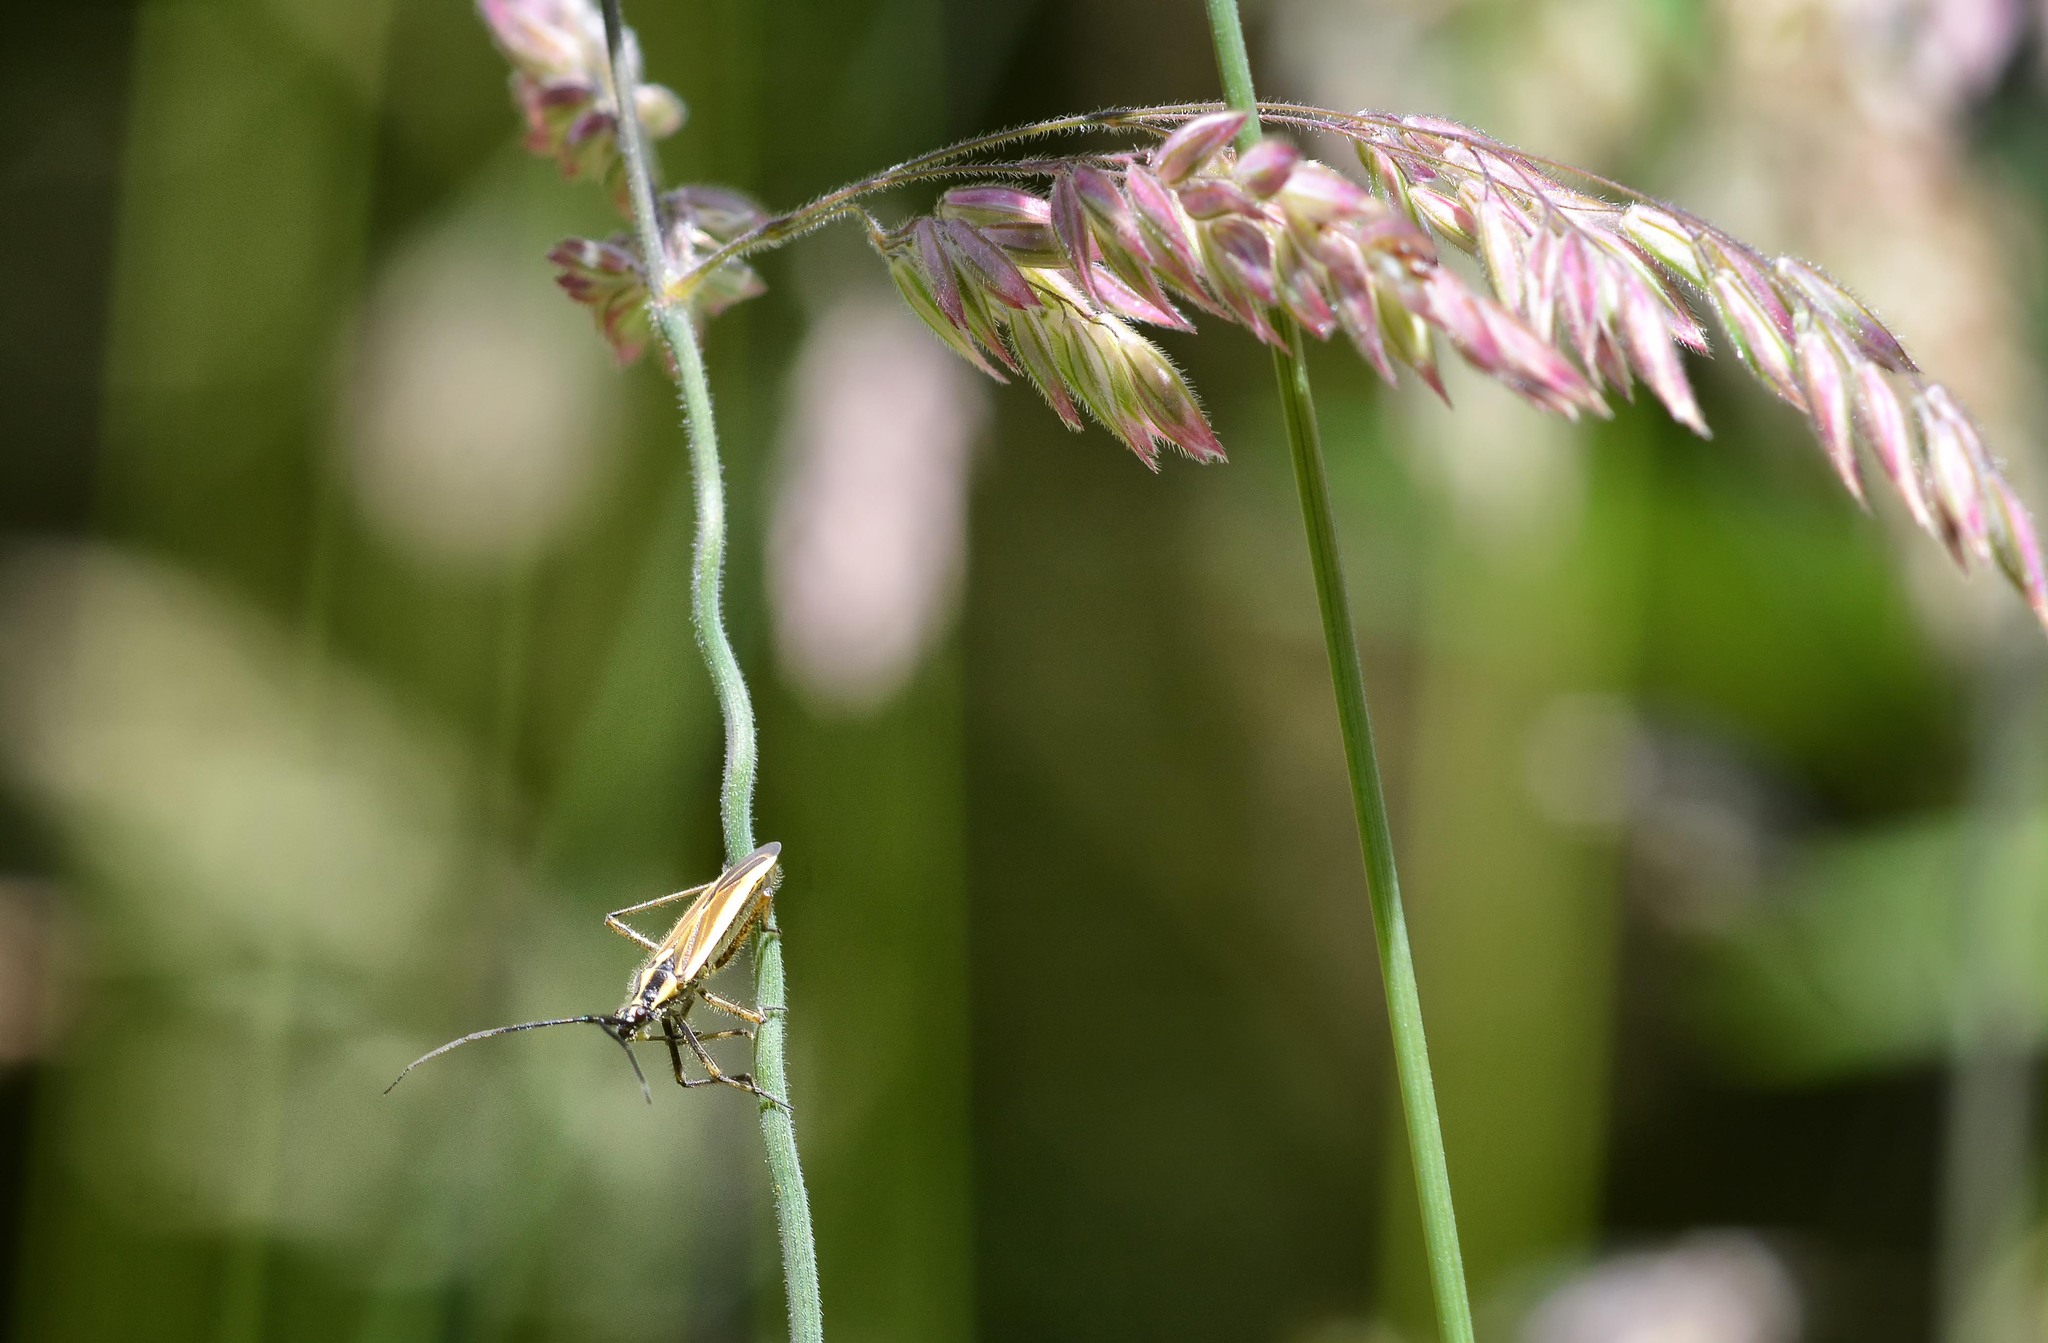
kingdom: Animalia
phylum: Arthropoda
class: Insecta
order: Hemiptera
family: Miridae
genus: Leptopterna
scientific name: Leptopterna dolabrata
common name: Meadow plant bug
